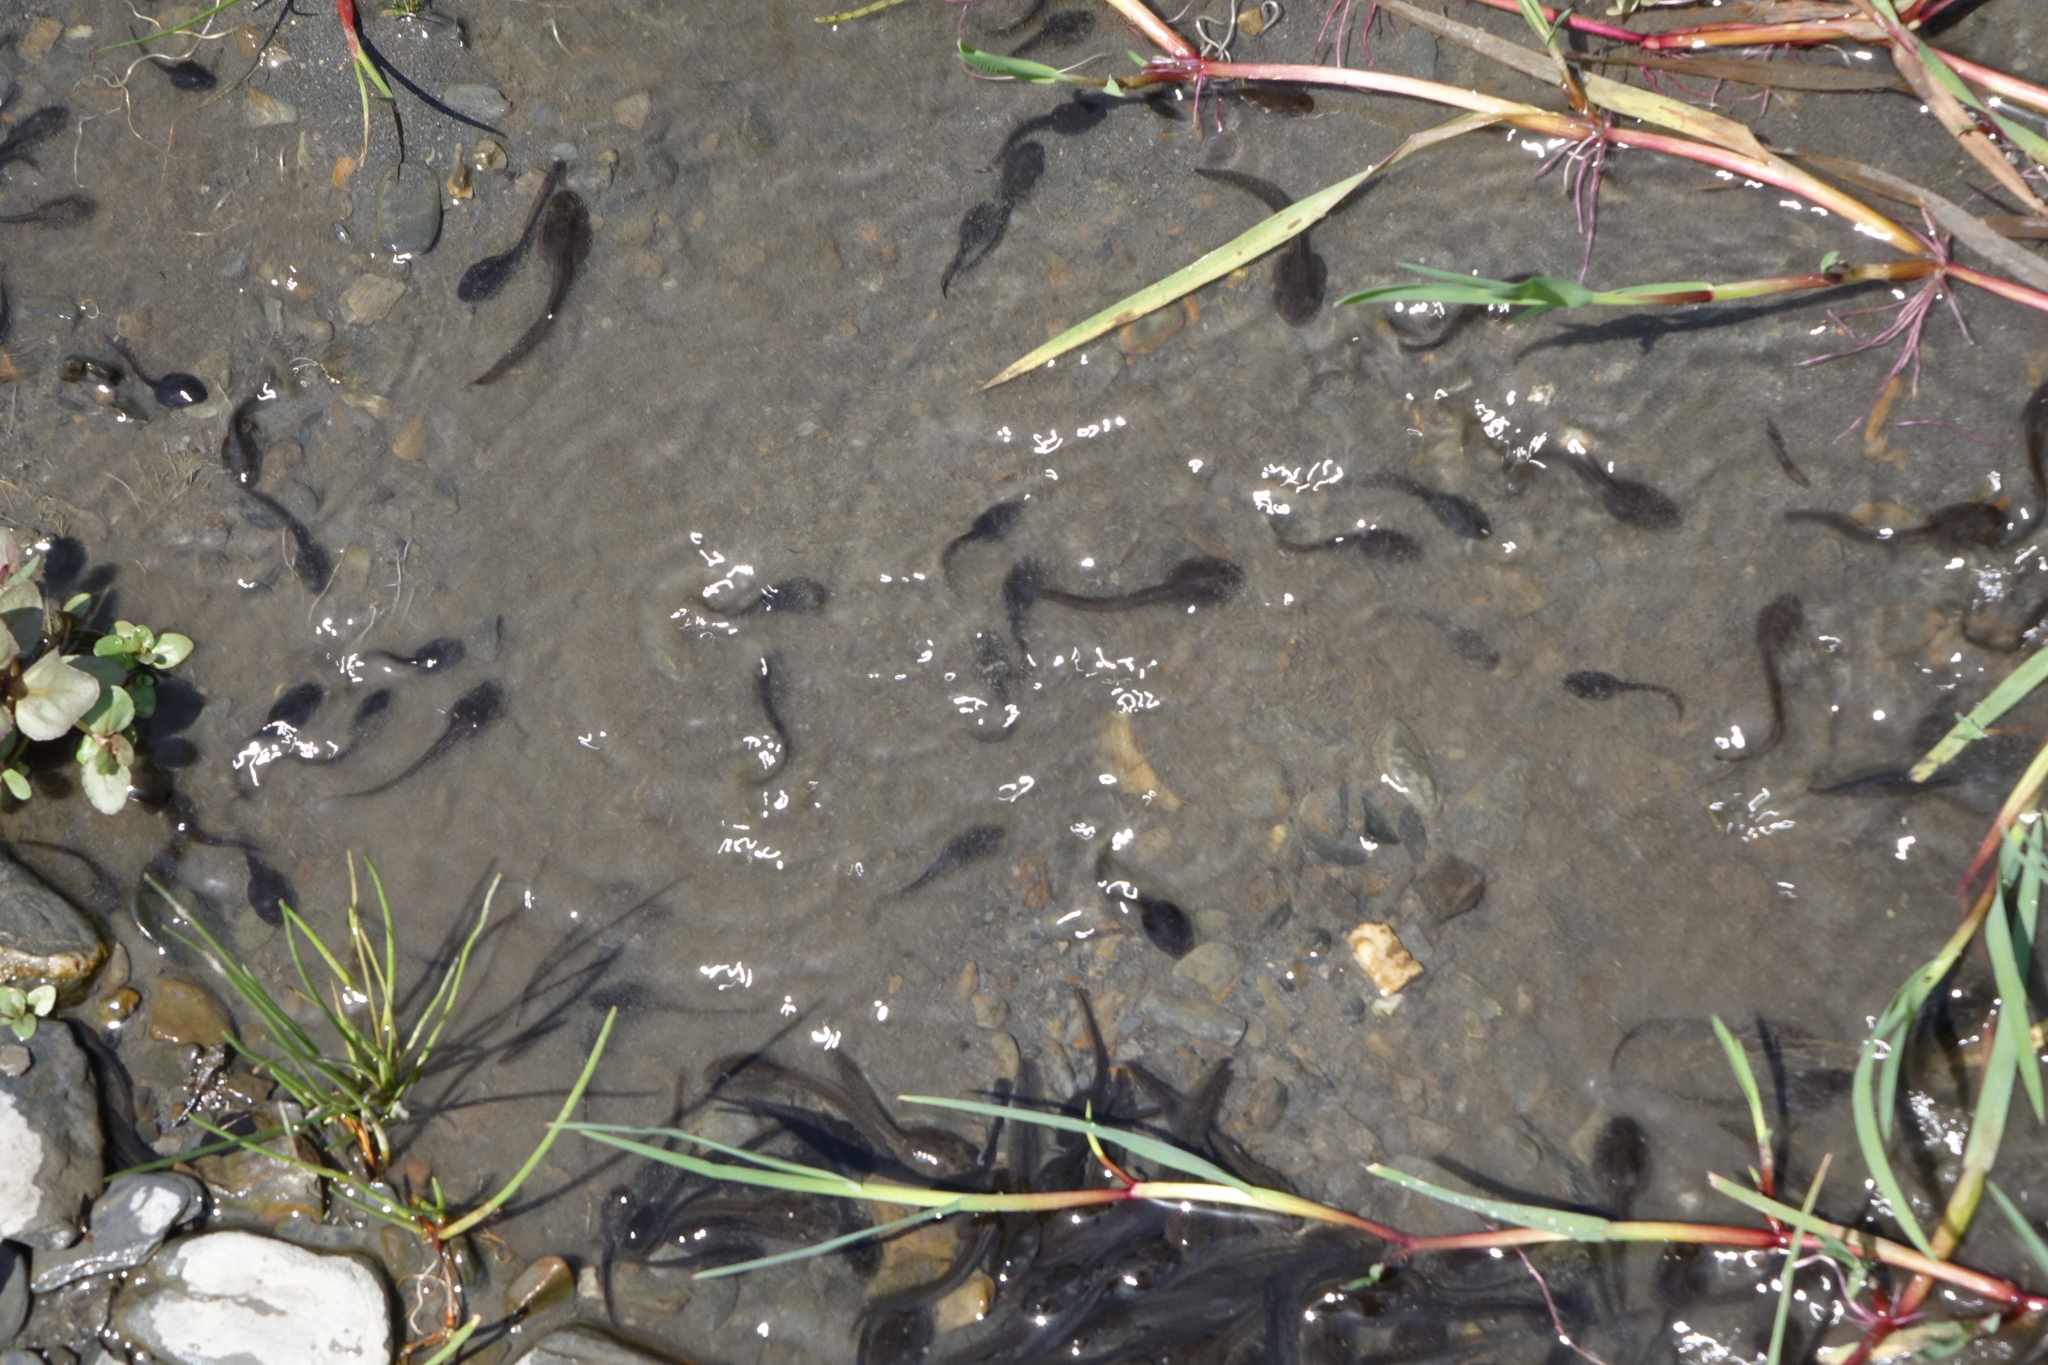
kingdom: Animalia
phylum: Chordata
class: Amphibia
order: Anura
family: Ranidae
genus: Rana
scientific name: Rana macrocnemis
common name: Banded frog
